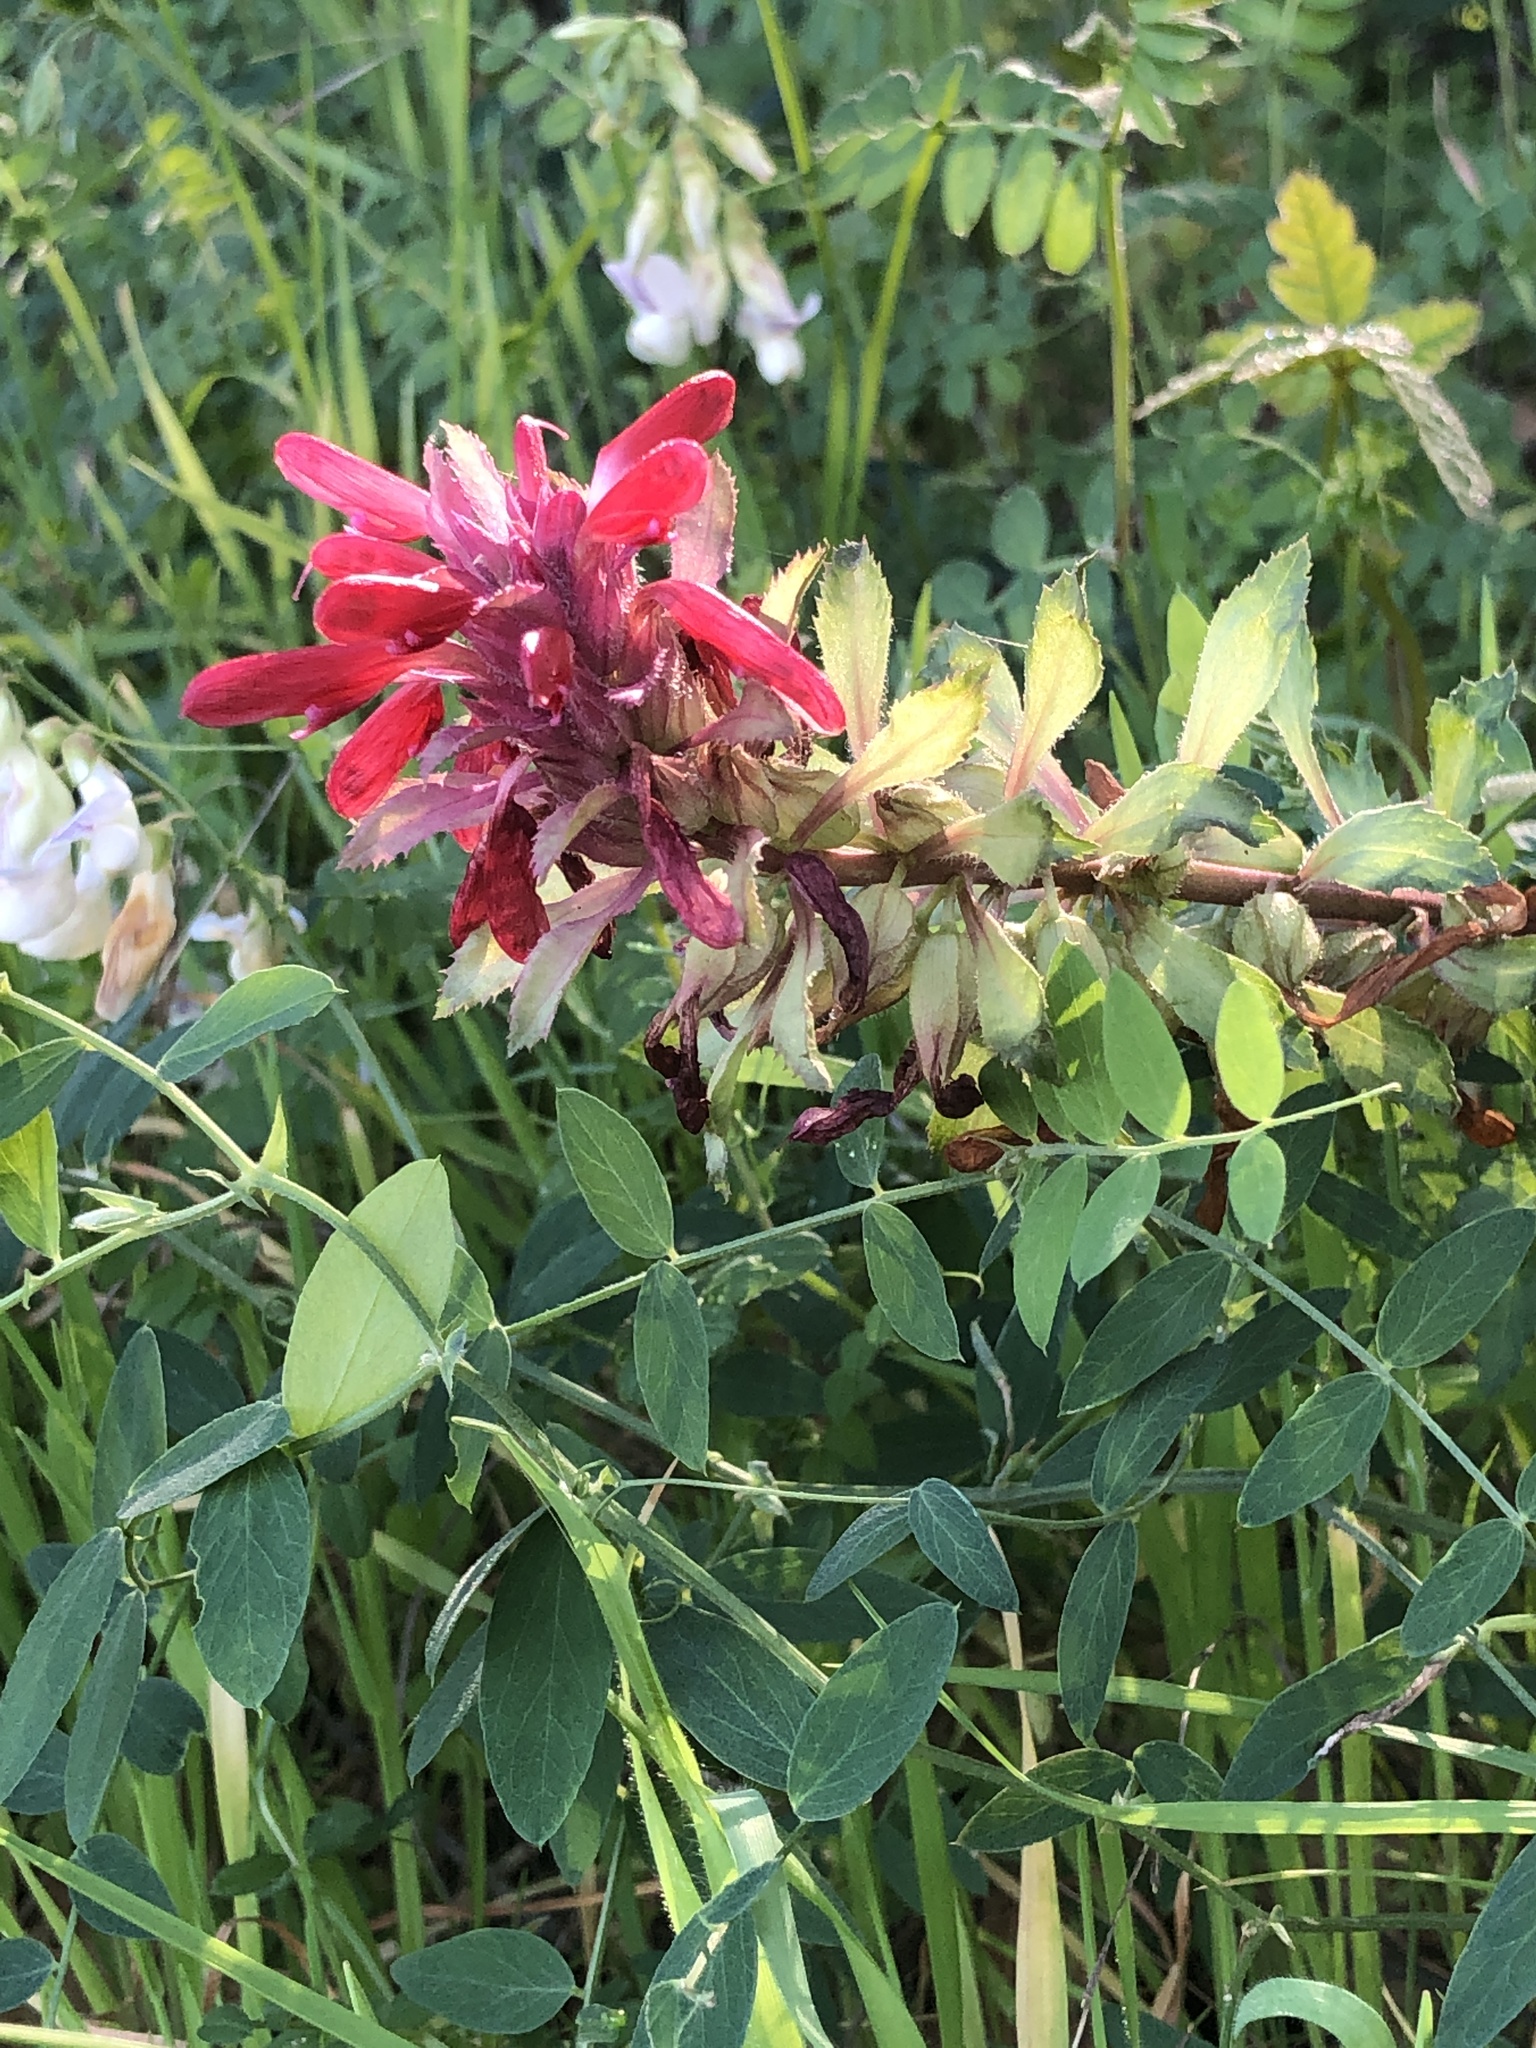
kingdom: Plantae
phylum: Tracheophyta
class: Magnoliopsida
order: Lamiales
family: Orobanchaceae
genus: Pedicularis
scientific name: Pedicularis densiflora
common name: Indian warrior
